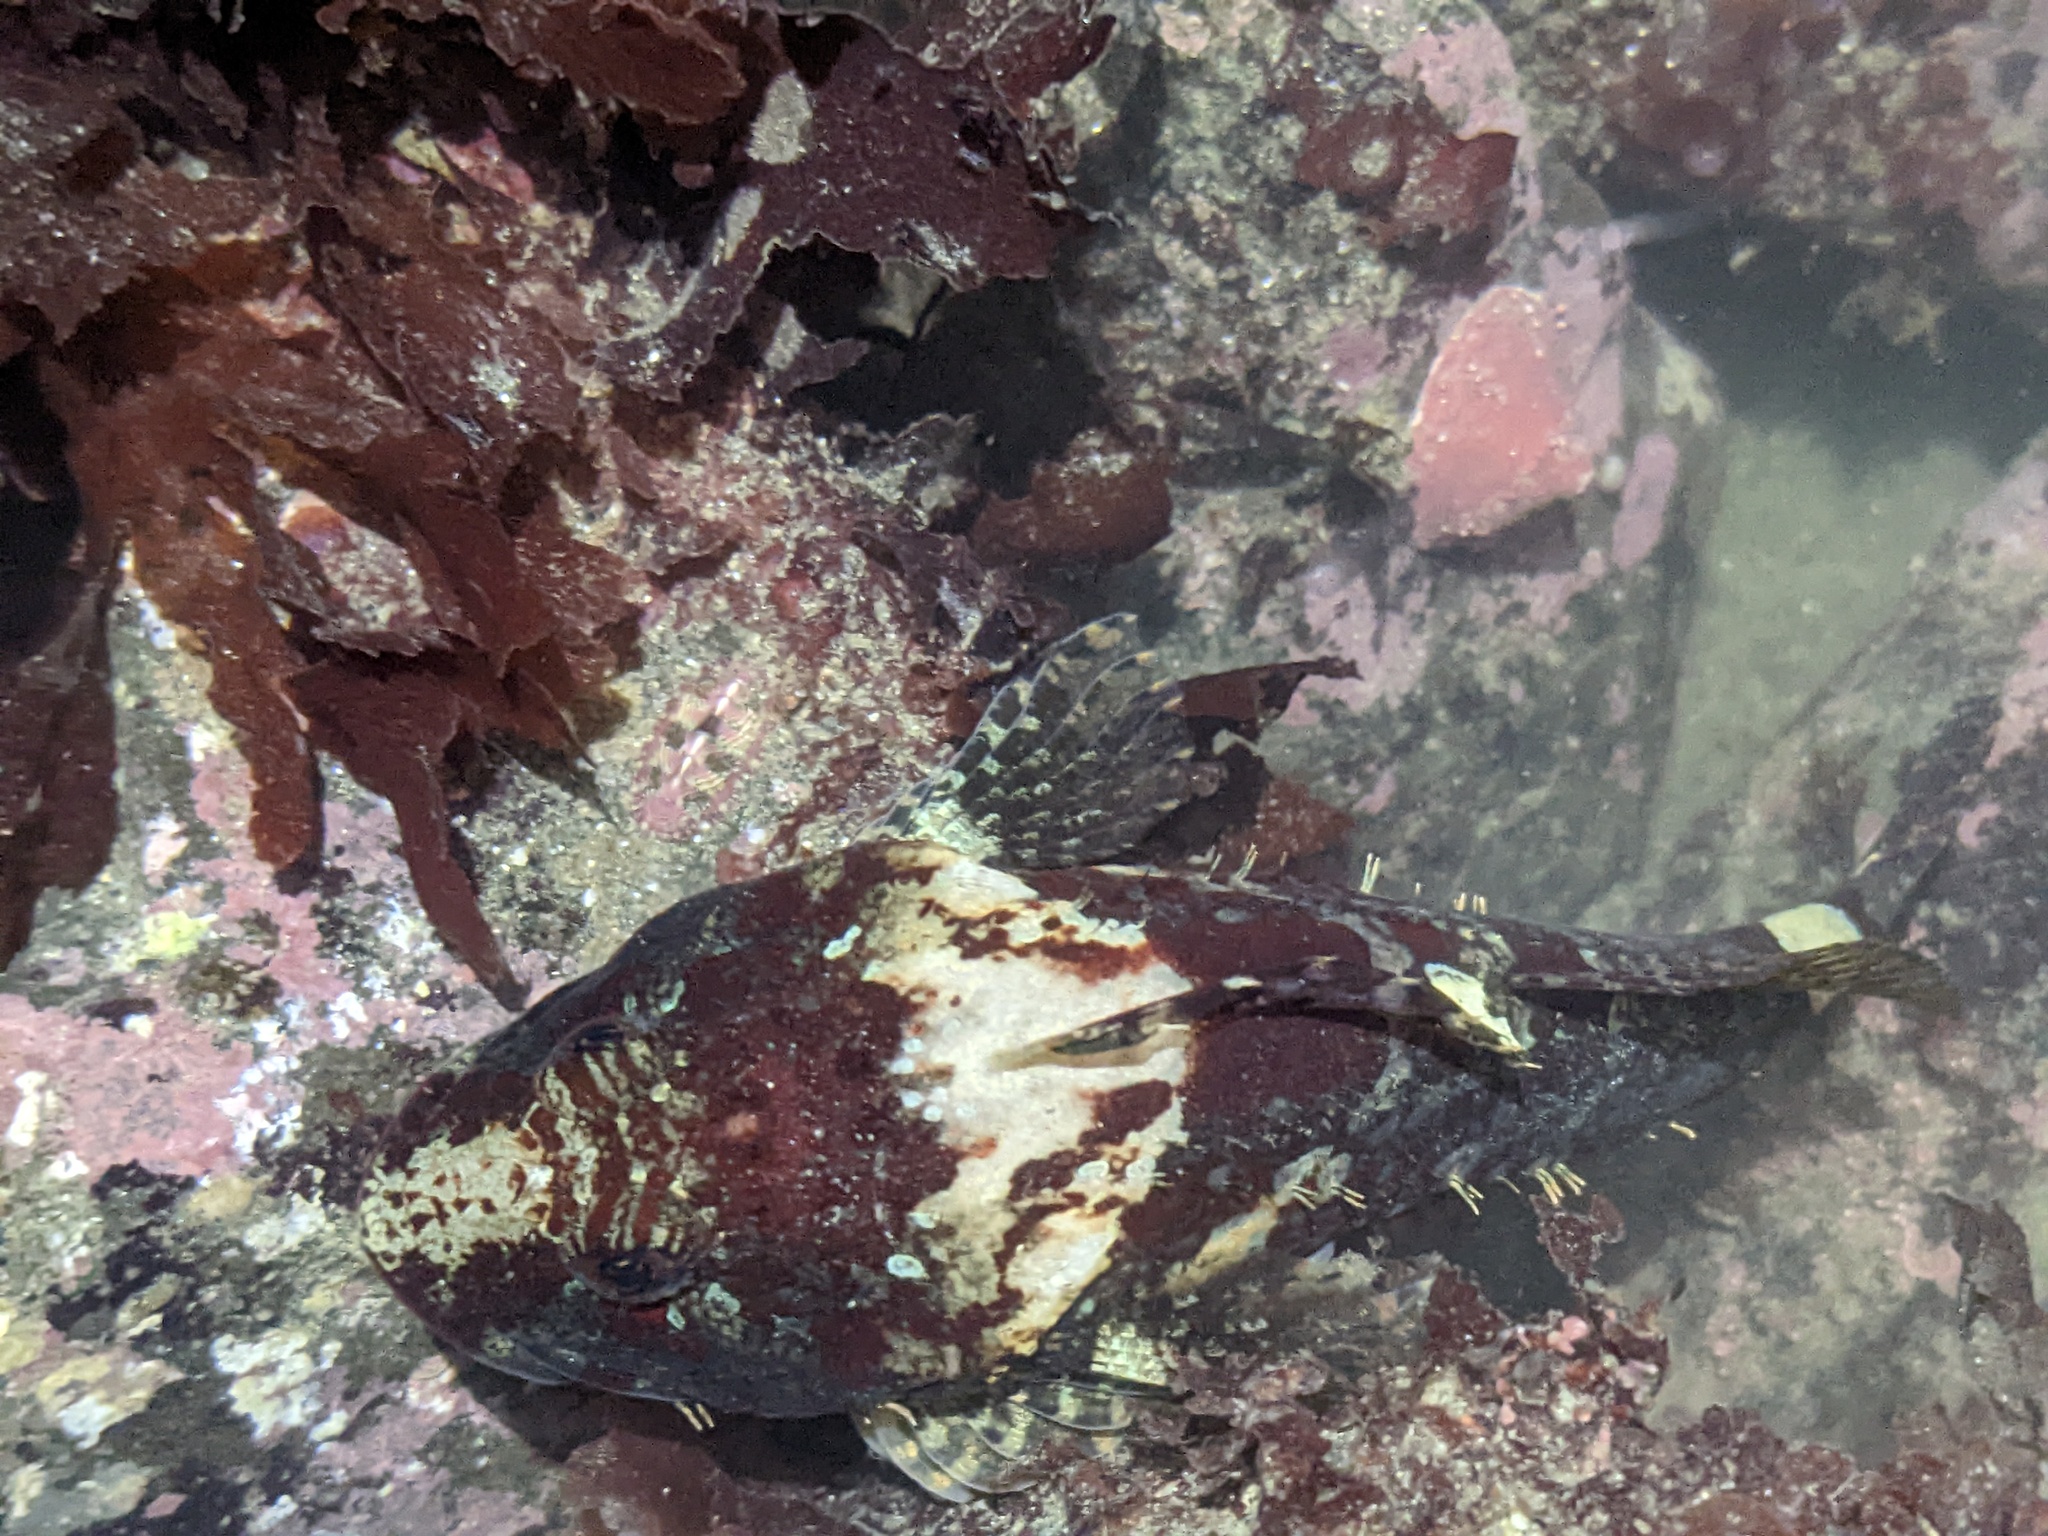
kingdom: Animalia
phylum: Chordata
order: Scorpaeniformes
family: Cottidae
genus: Artedius
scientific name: Artedius lateralis
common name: Smooth-head sculpin
